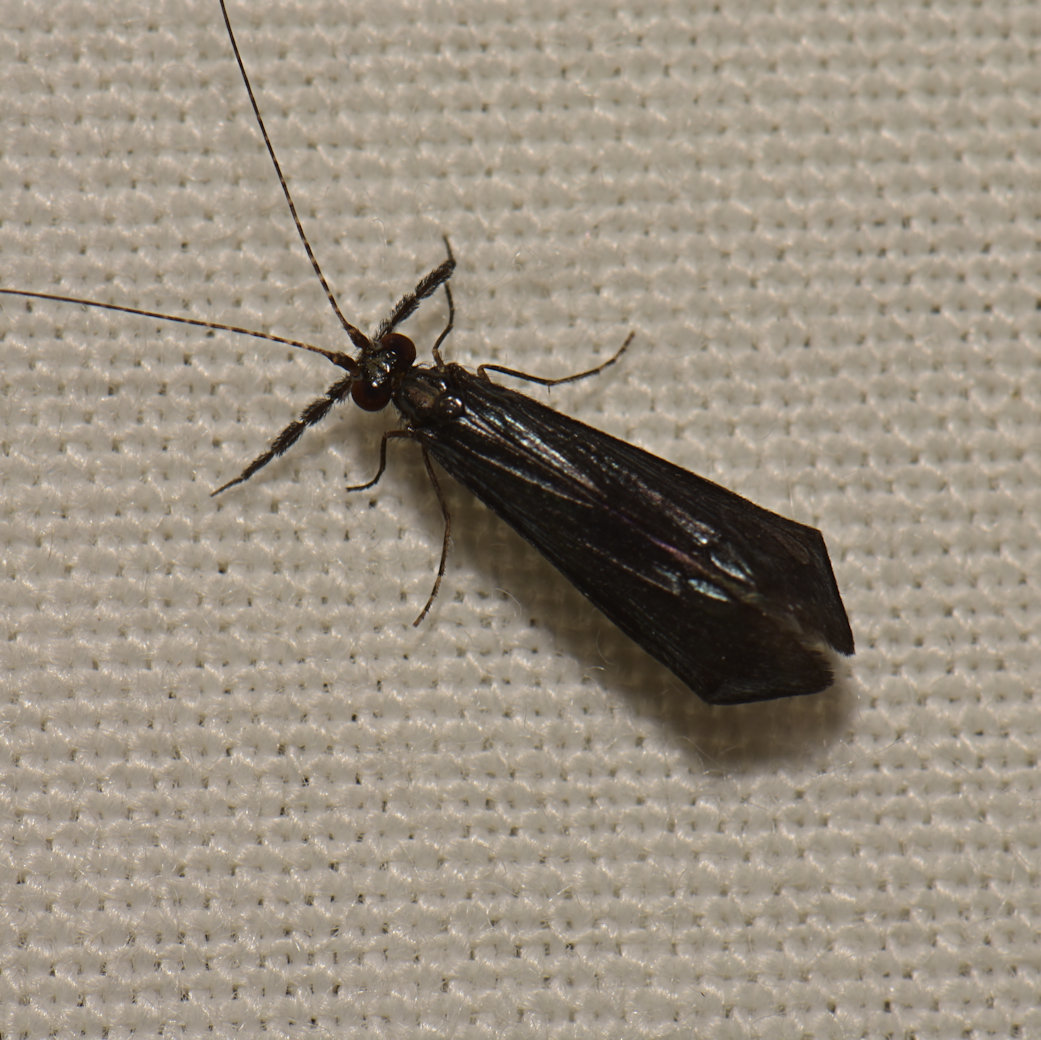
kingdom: Animalia
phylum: Arthropoda
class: Insecta
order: Trichoptera
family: Leptoceridae
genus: Mystacides
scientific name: Mystacides sepulchralis
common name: Black dancer caddisfly
